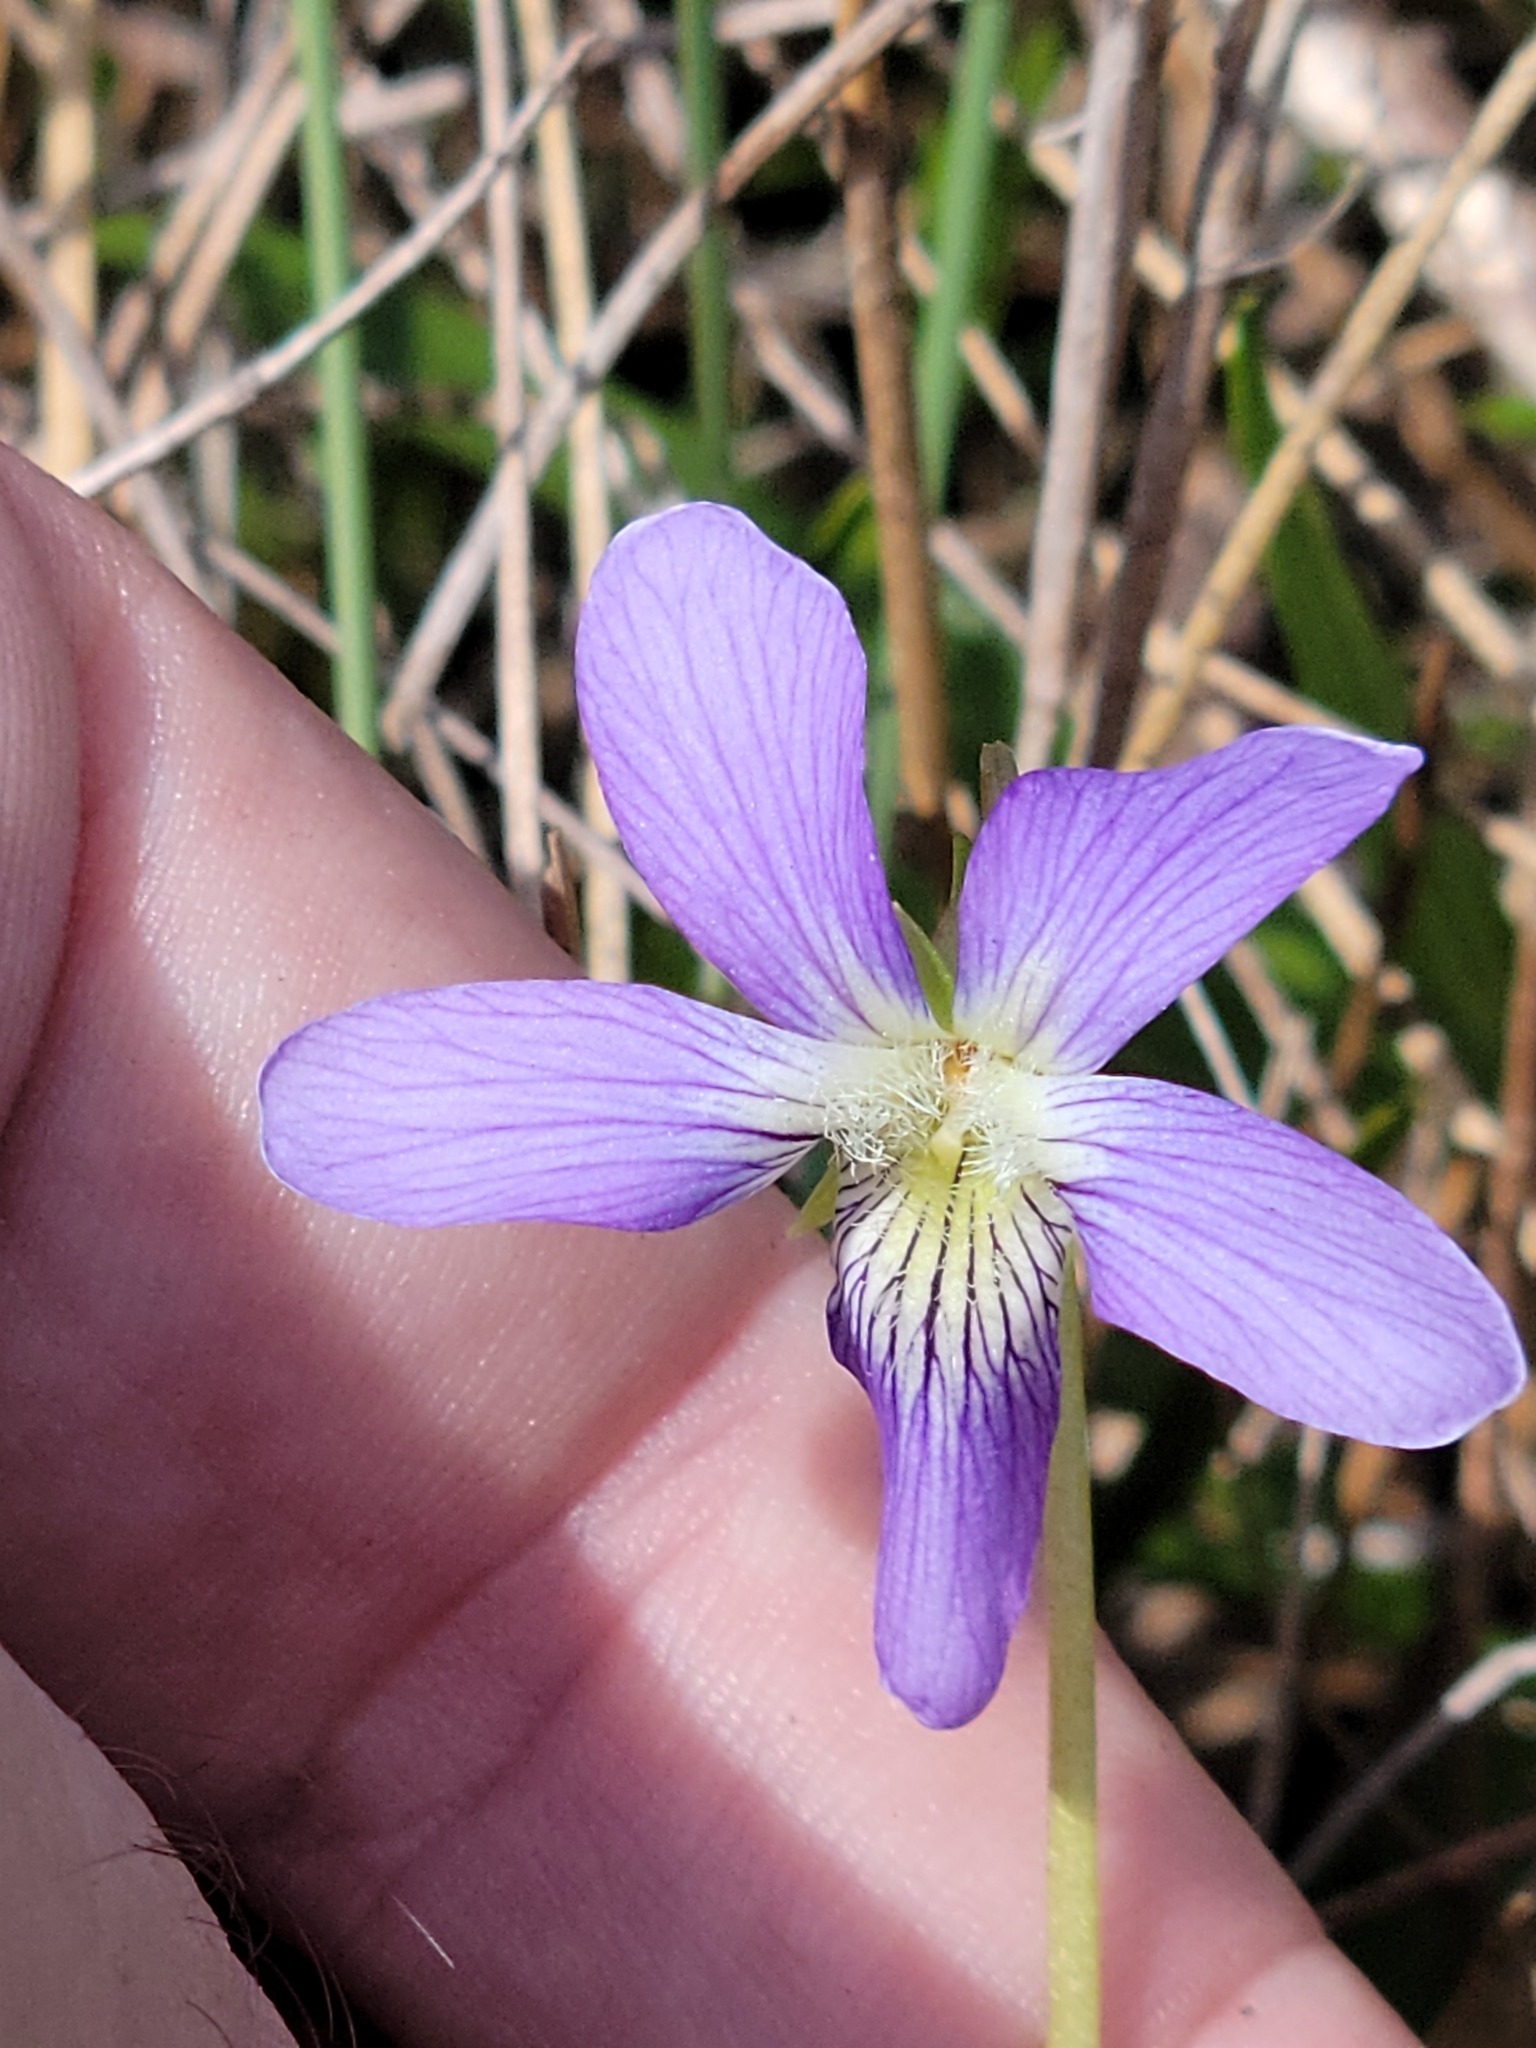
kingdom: Plantae
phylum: Tracheophyta
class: Magnoliopsida
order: Malpighiales
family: Violaceae
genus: Viola
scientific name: Viola septemloba
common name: Southern coast violet
